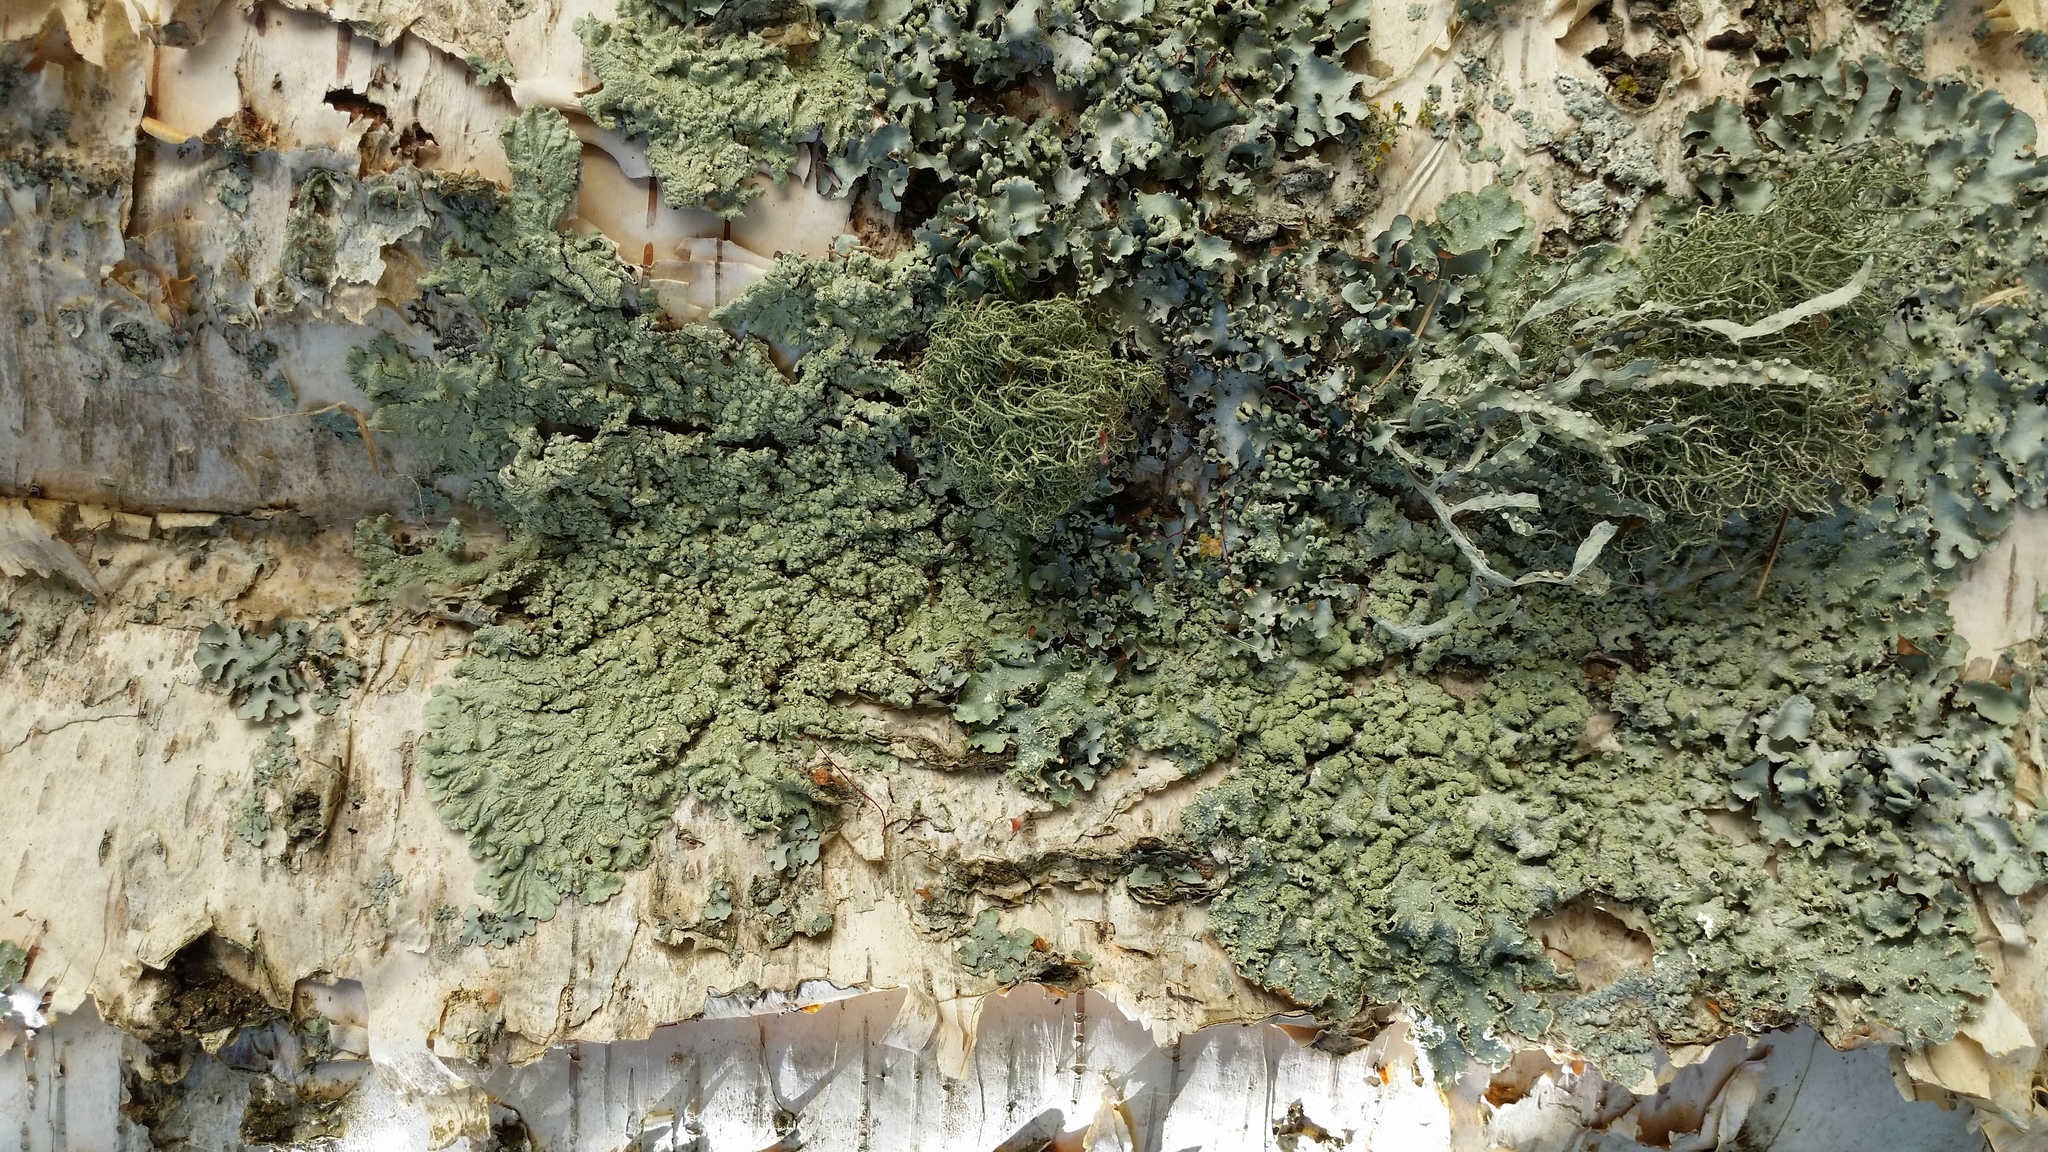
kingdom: Fungi
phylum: Ascomycota
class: Lecanoromycetes
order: Lecanorales
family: Parmeliaceae
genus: Punctelia
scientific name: Punctelia subrudecta
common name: Powdered speckled shield lichen
